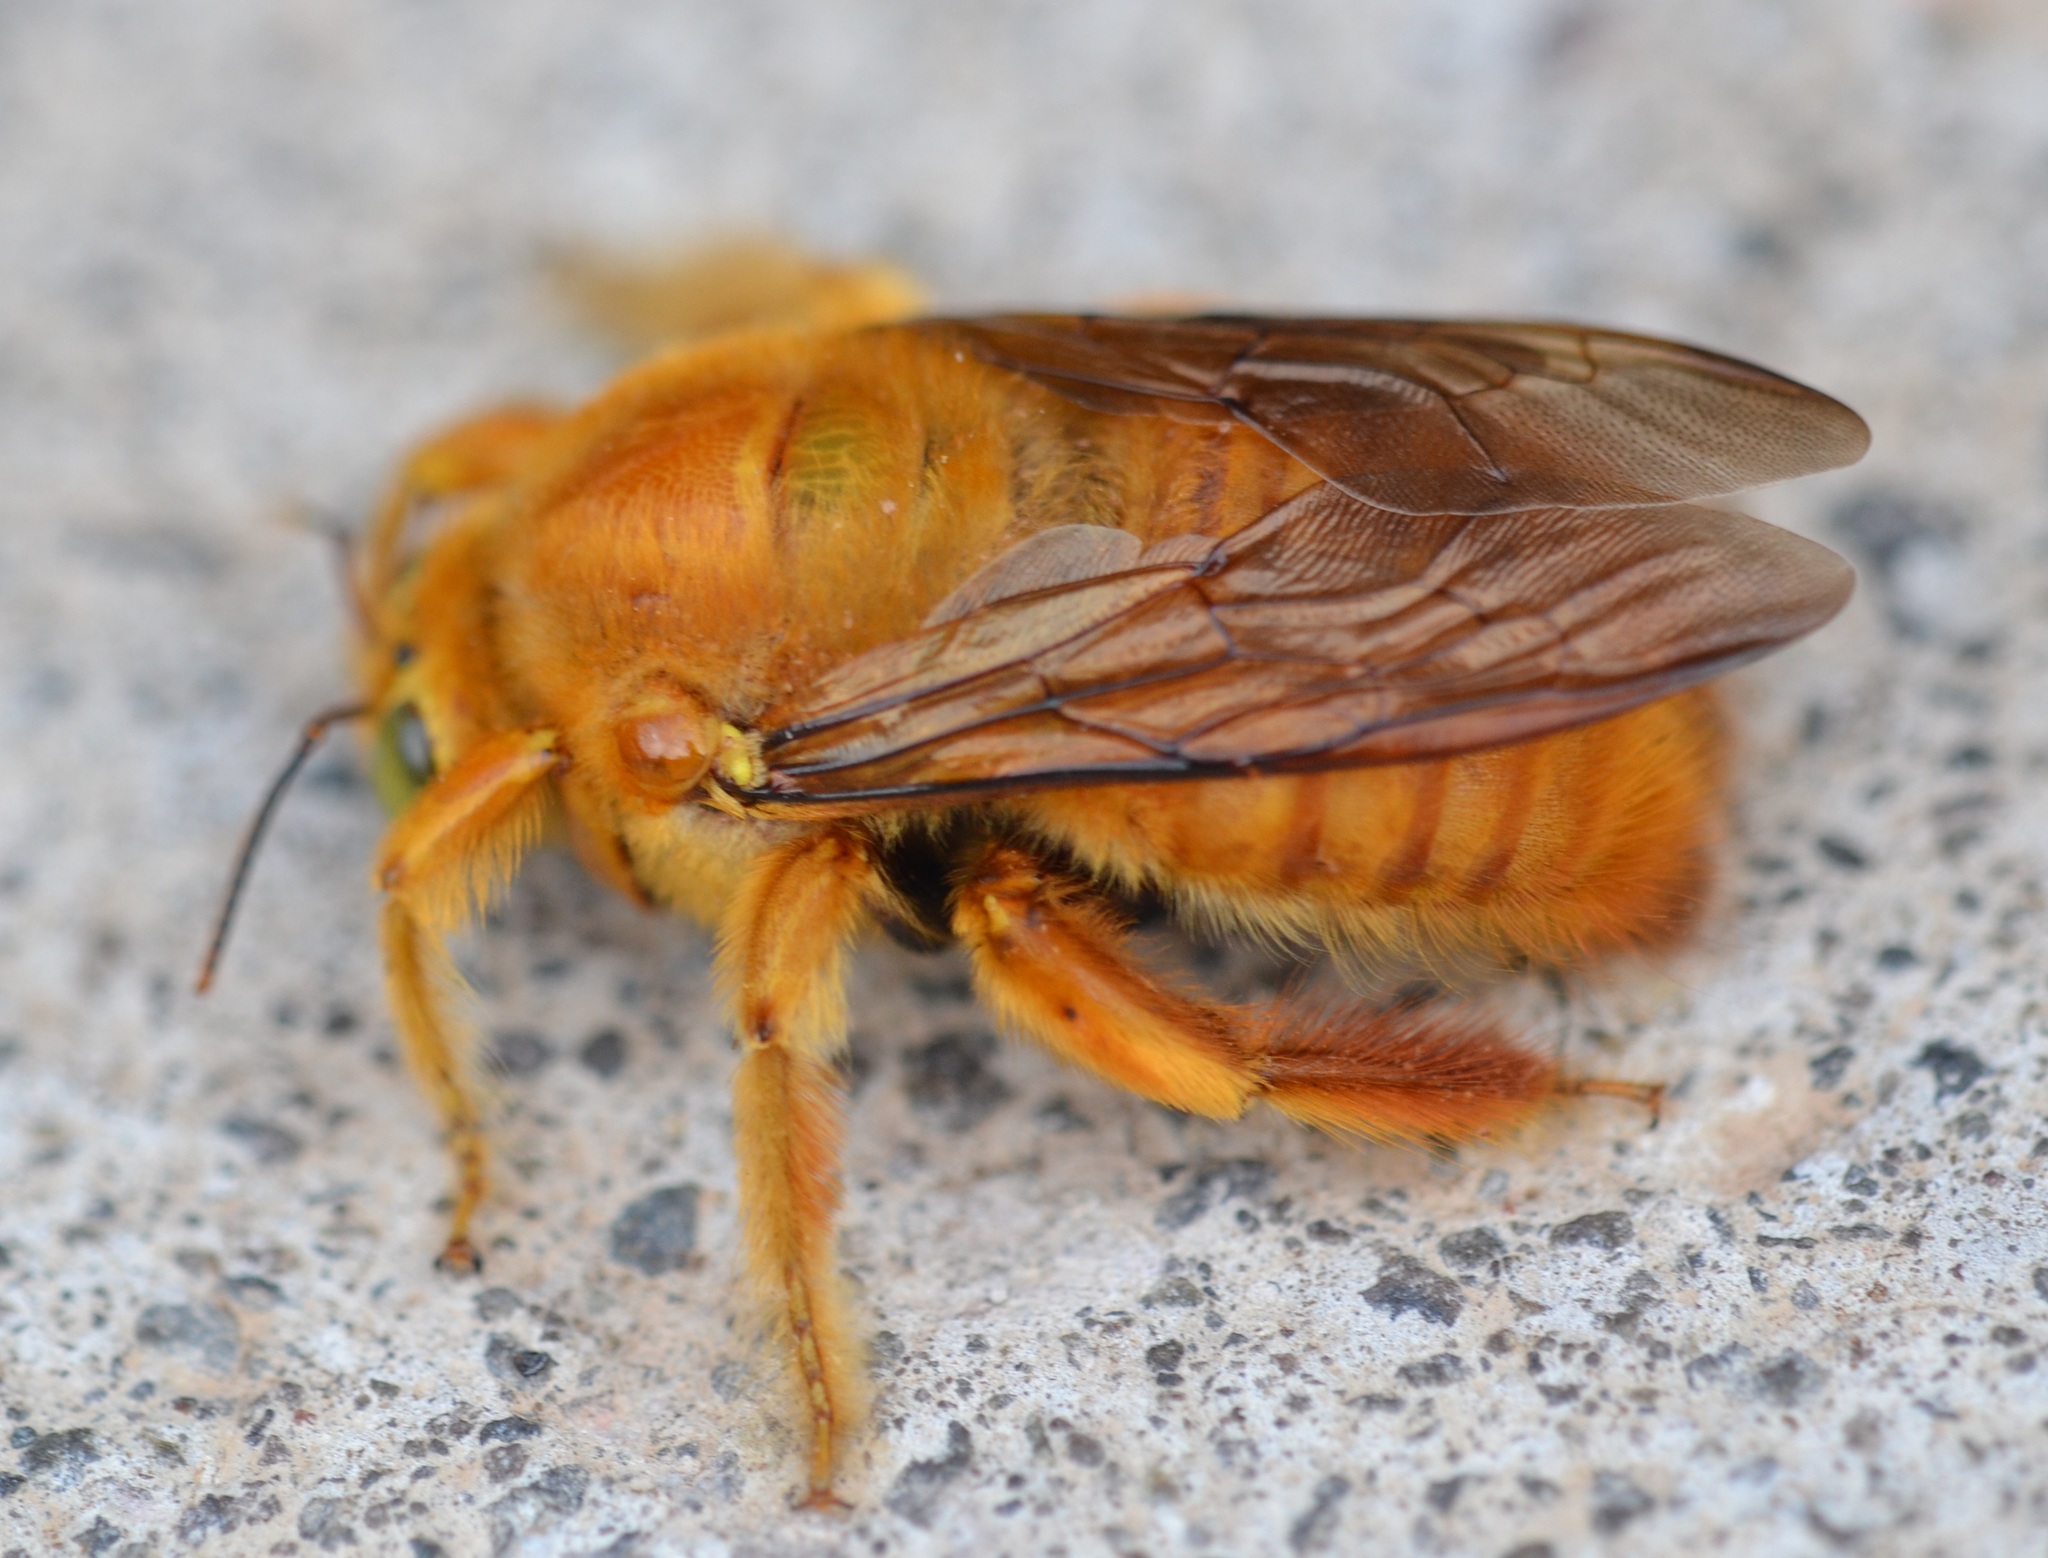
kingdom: Animalia
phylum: Arthropoda
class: Insecta
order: Hymenoptera
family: Apidae
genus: Xylocopa
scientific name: Xylocopa sonorina
